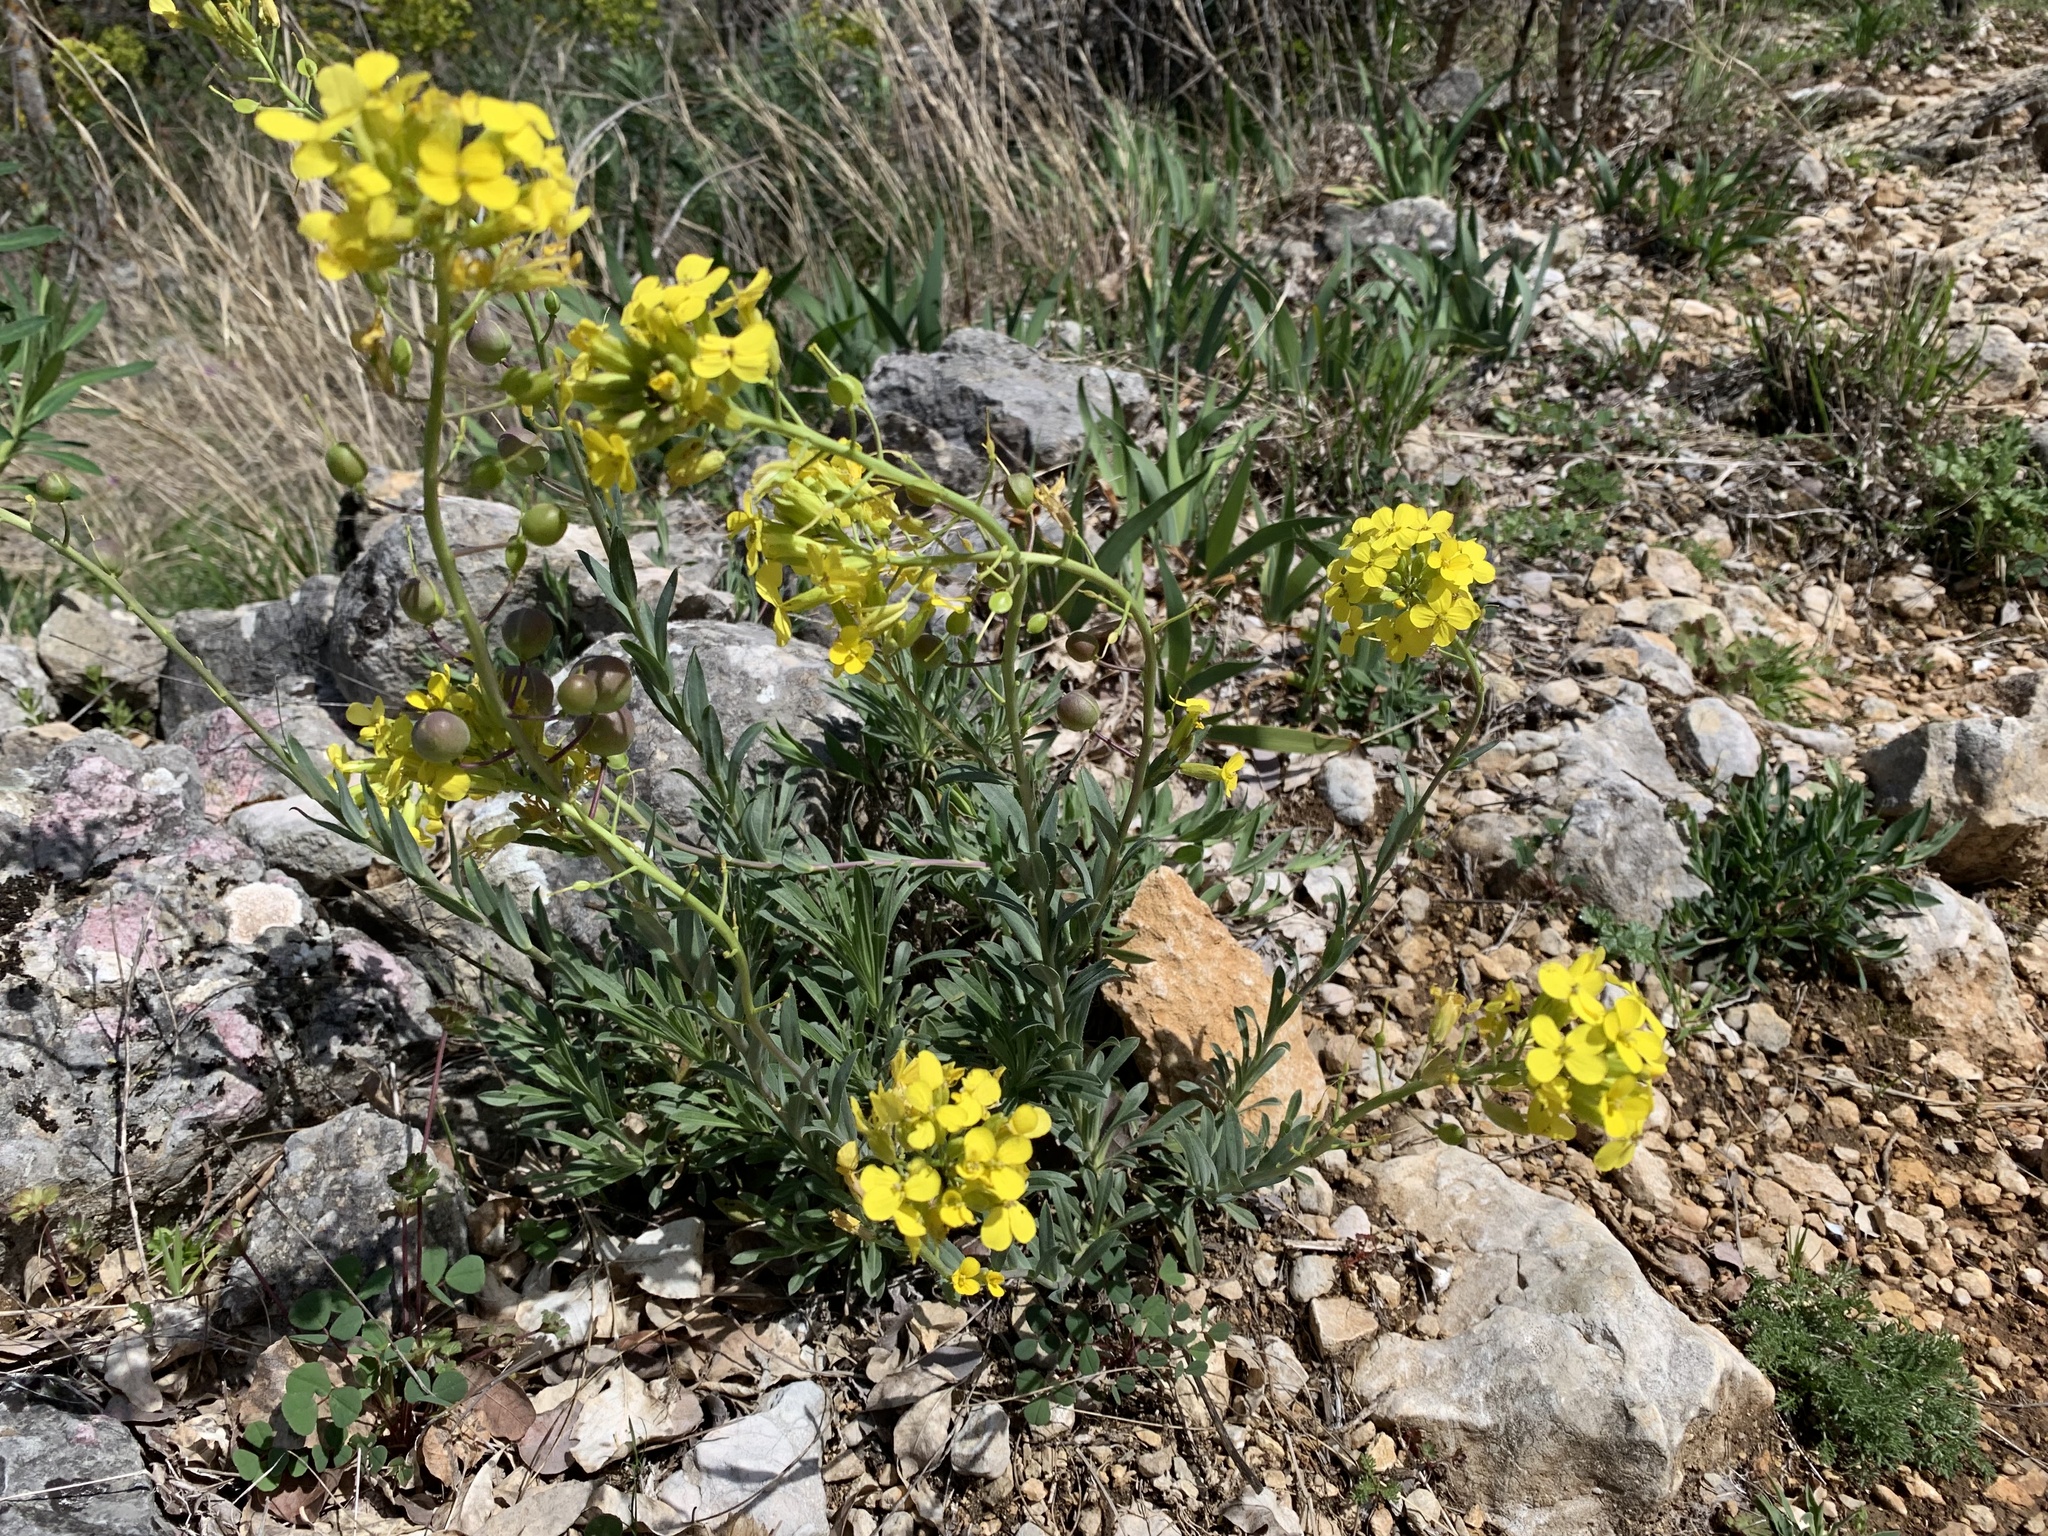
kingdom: Plantae
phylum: Tracheophyta
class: Magnoliopsida
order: Brassicales
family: Brassicaceae
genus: Alyssoides
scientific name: Alyssoides utriculata
